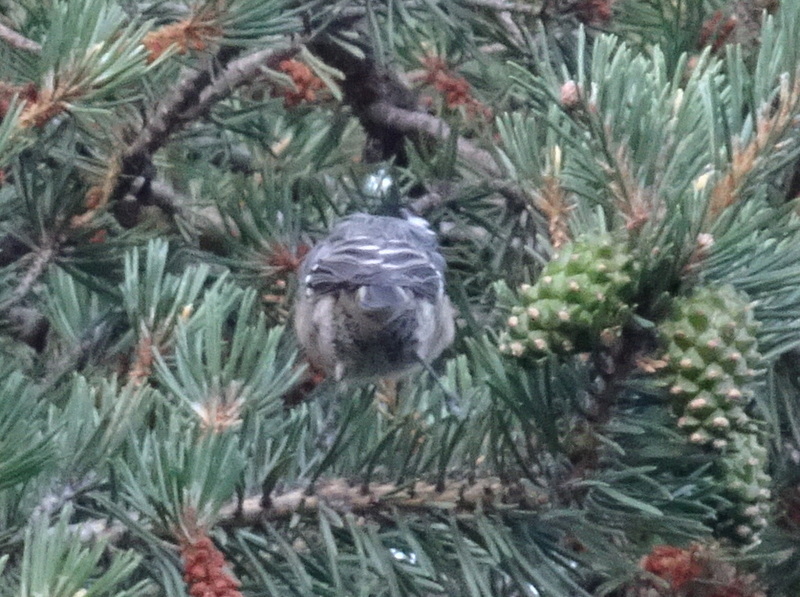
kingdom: Animalia
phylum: Chordata
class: Aves
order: Passeriformes
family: Paridae
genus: Periparus
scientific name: Periparus ater
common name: Coal tit
